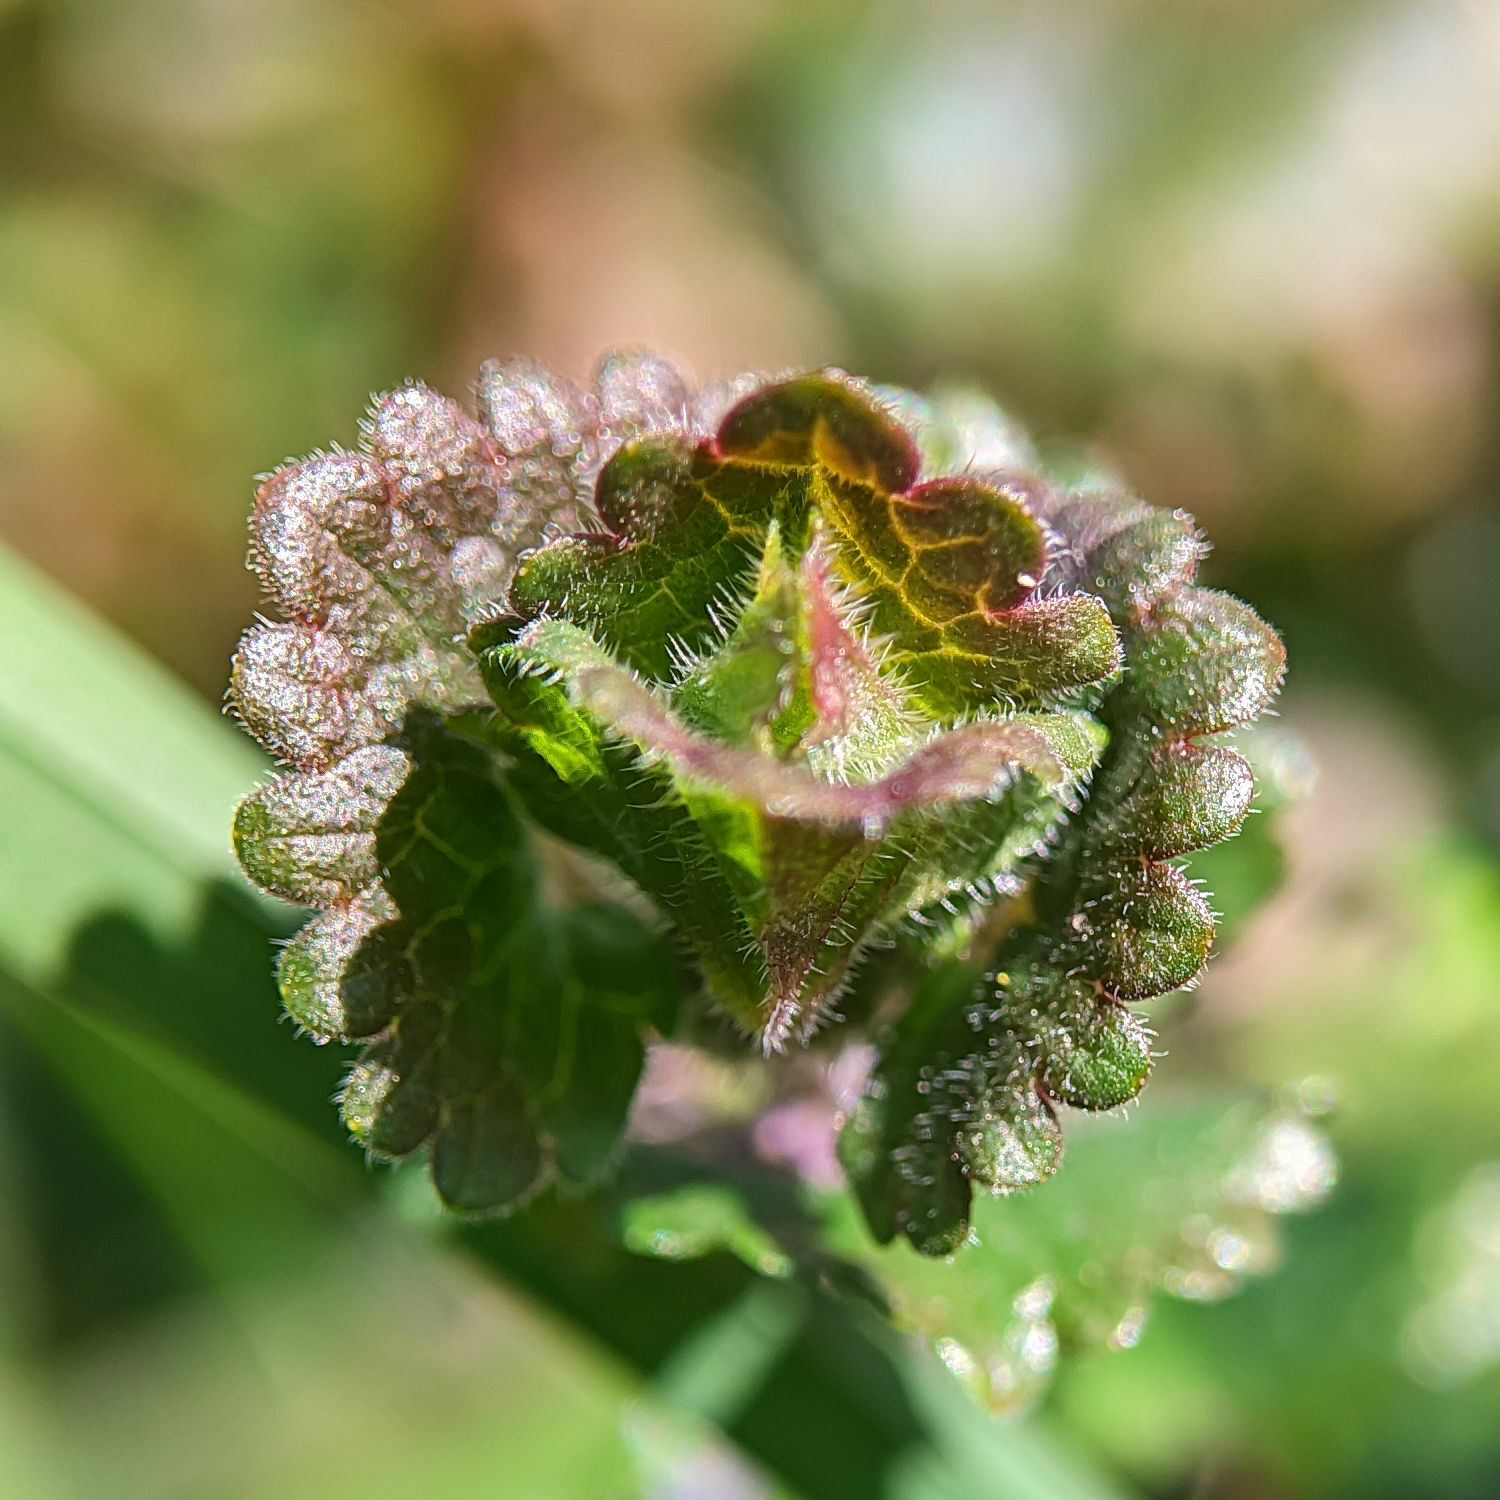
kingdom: Plantae
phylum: Tracheophyta
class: Magnoliopsida
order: Lamiales
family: Lamiaceae
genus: Glechoma
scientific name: Glechoma hederacea
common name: Ground ivy
